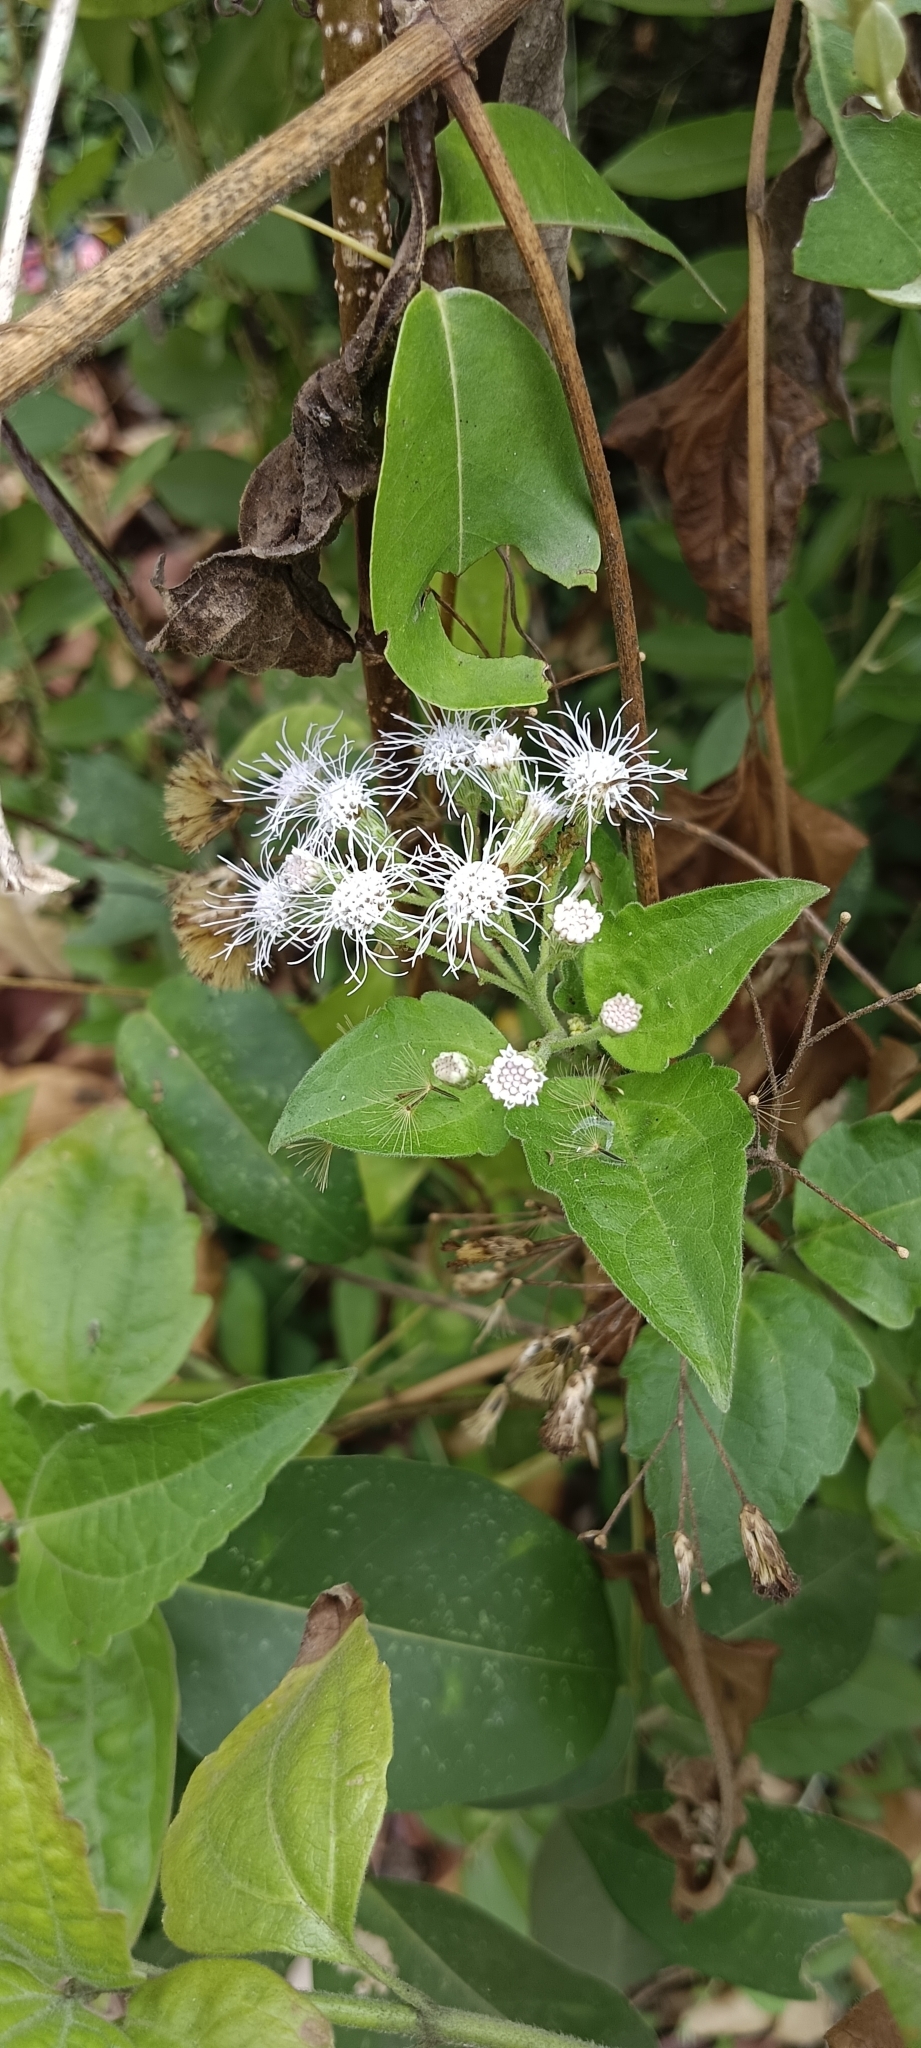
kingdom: Plantae
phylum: Tracheophyta
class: Magnoliopsida
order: Asterales
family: Asteraceae
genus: Chromolaena
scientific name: Chromolaena odorata
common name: Siamweed
